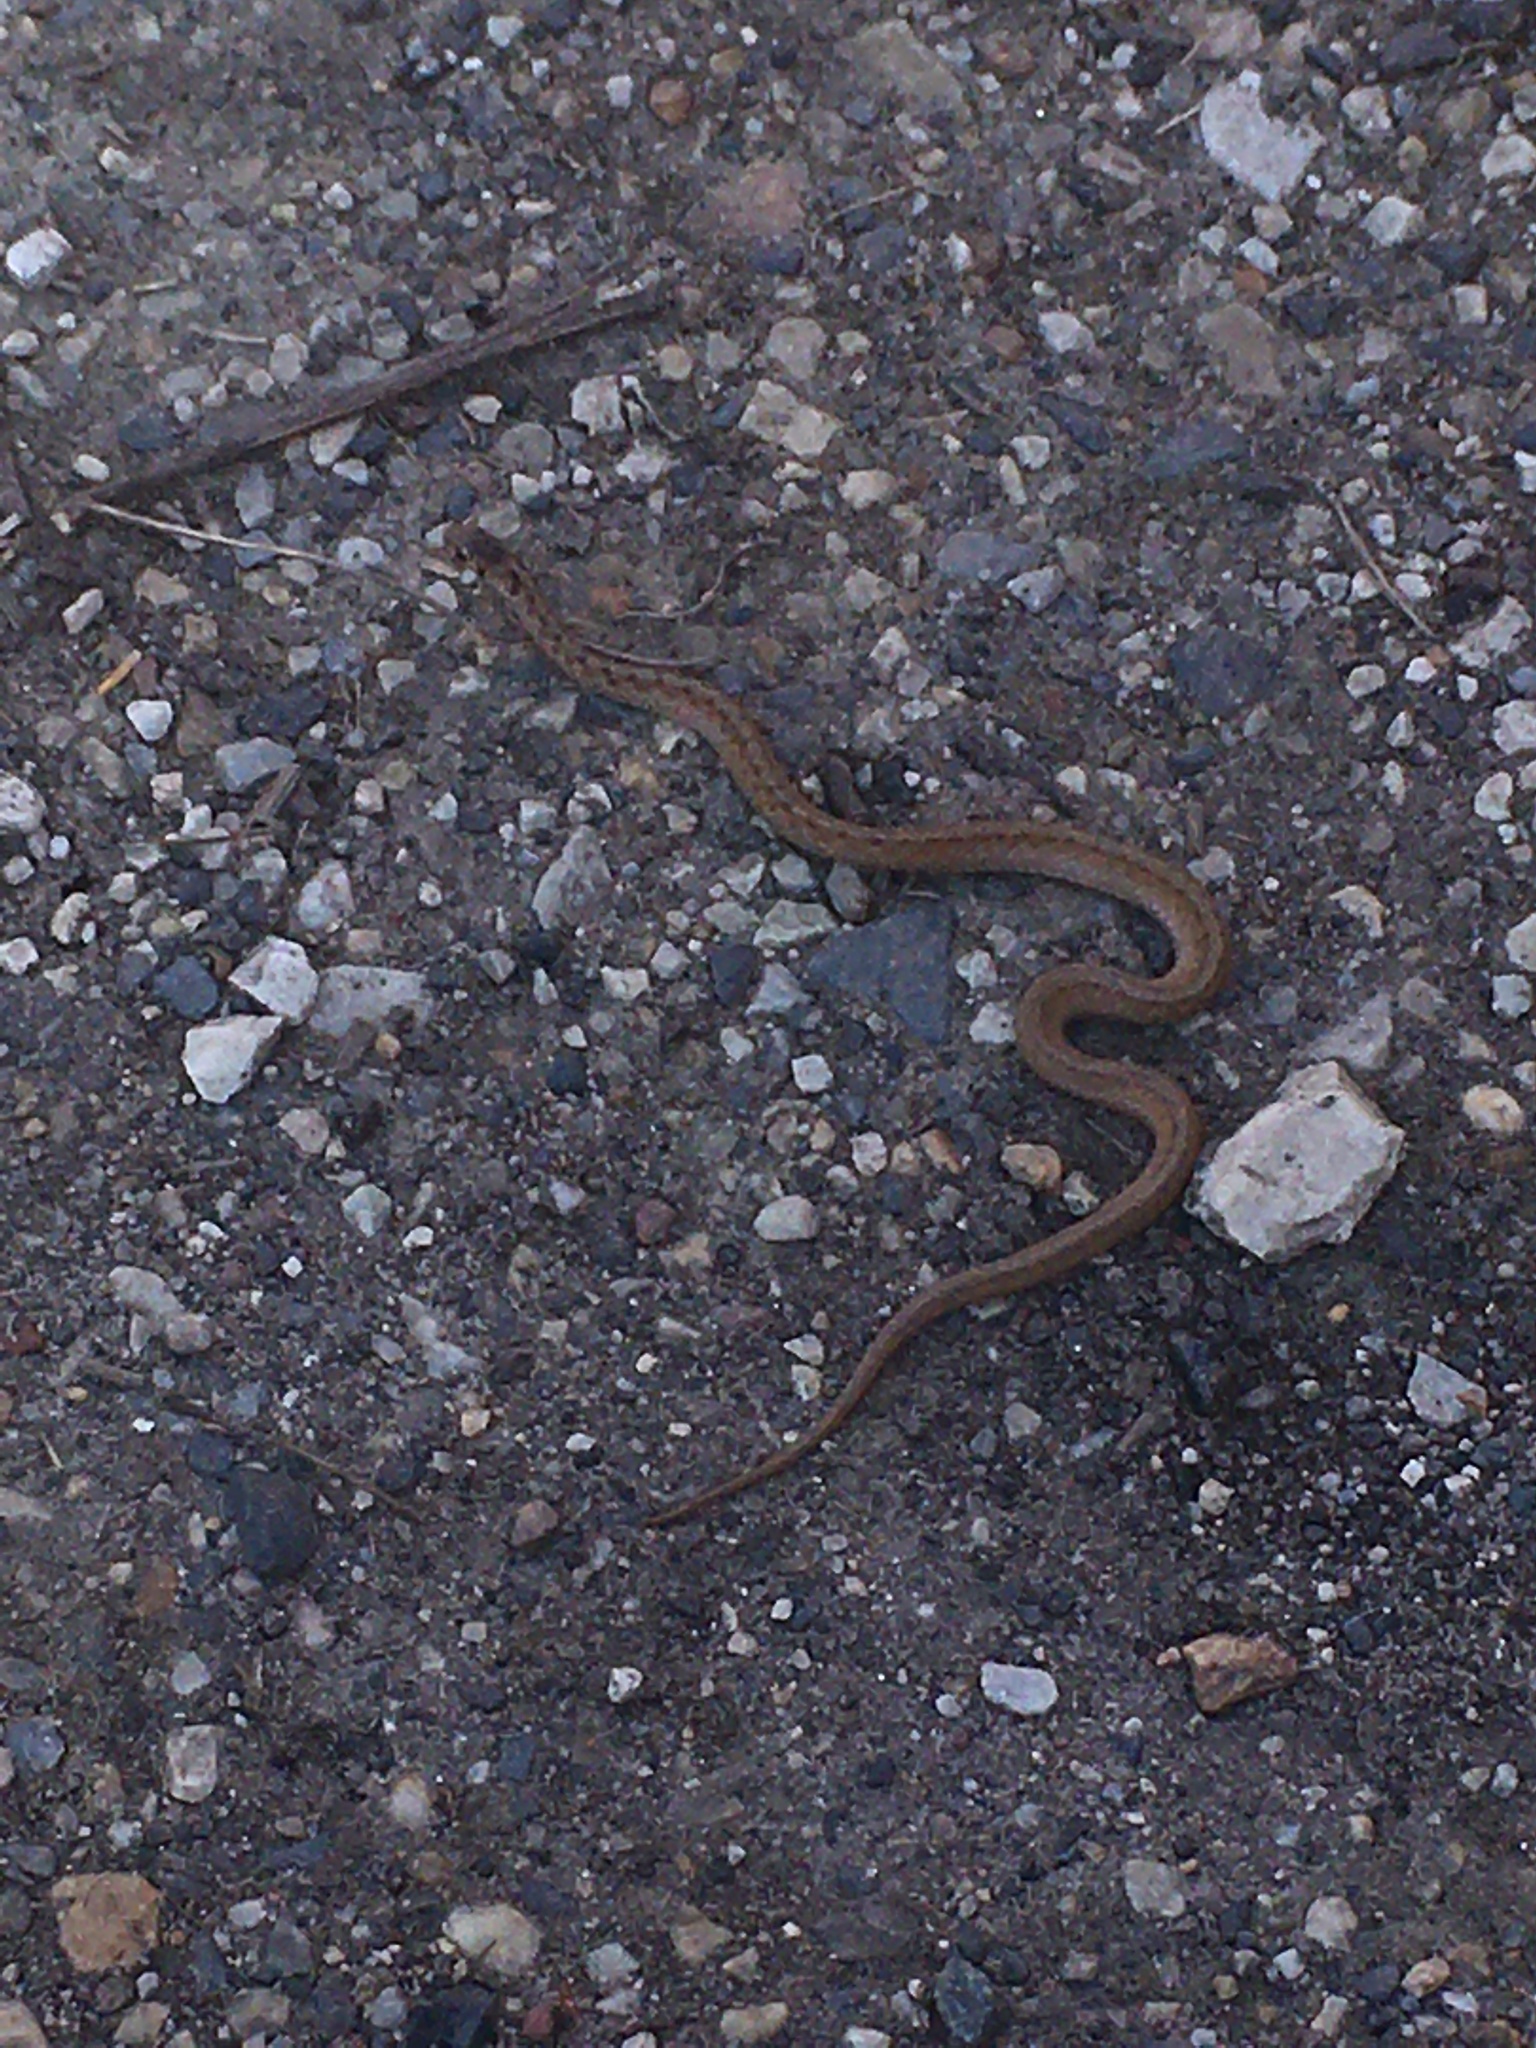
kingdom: Animalia
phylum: Chordata
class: Squamata
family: Colubridae
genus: Storeria
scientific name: Storeria dekayi
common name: (dekay’s) brown snake
